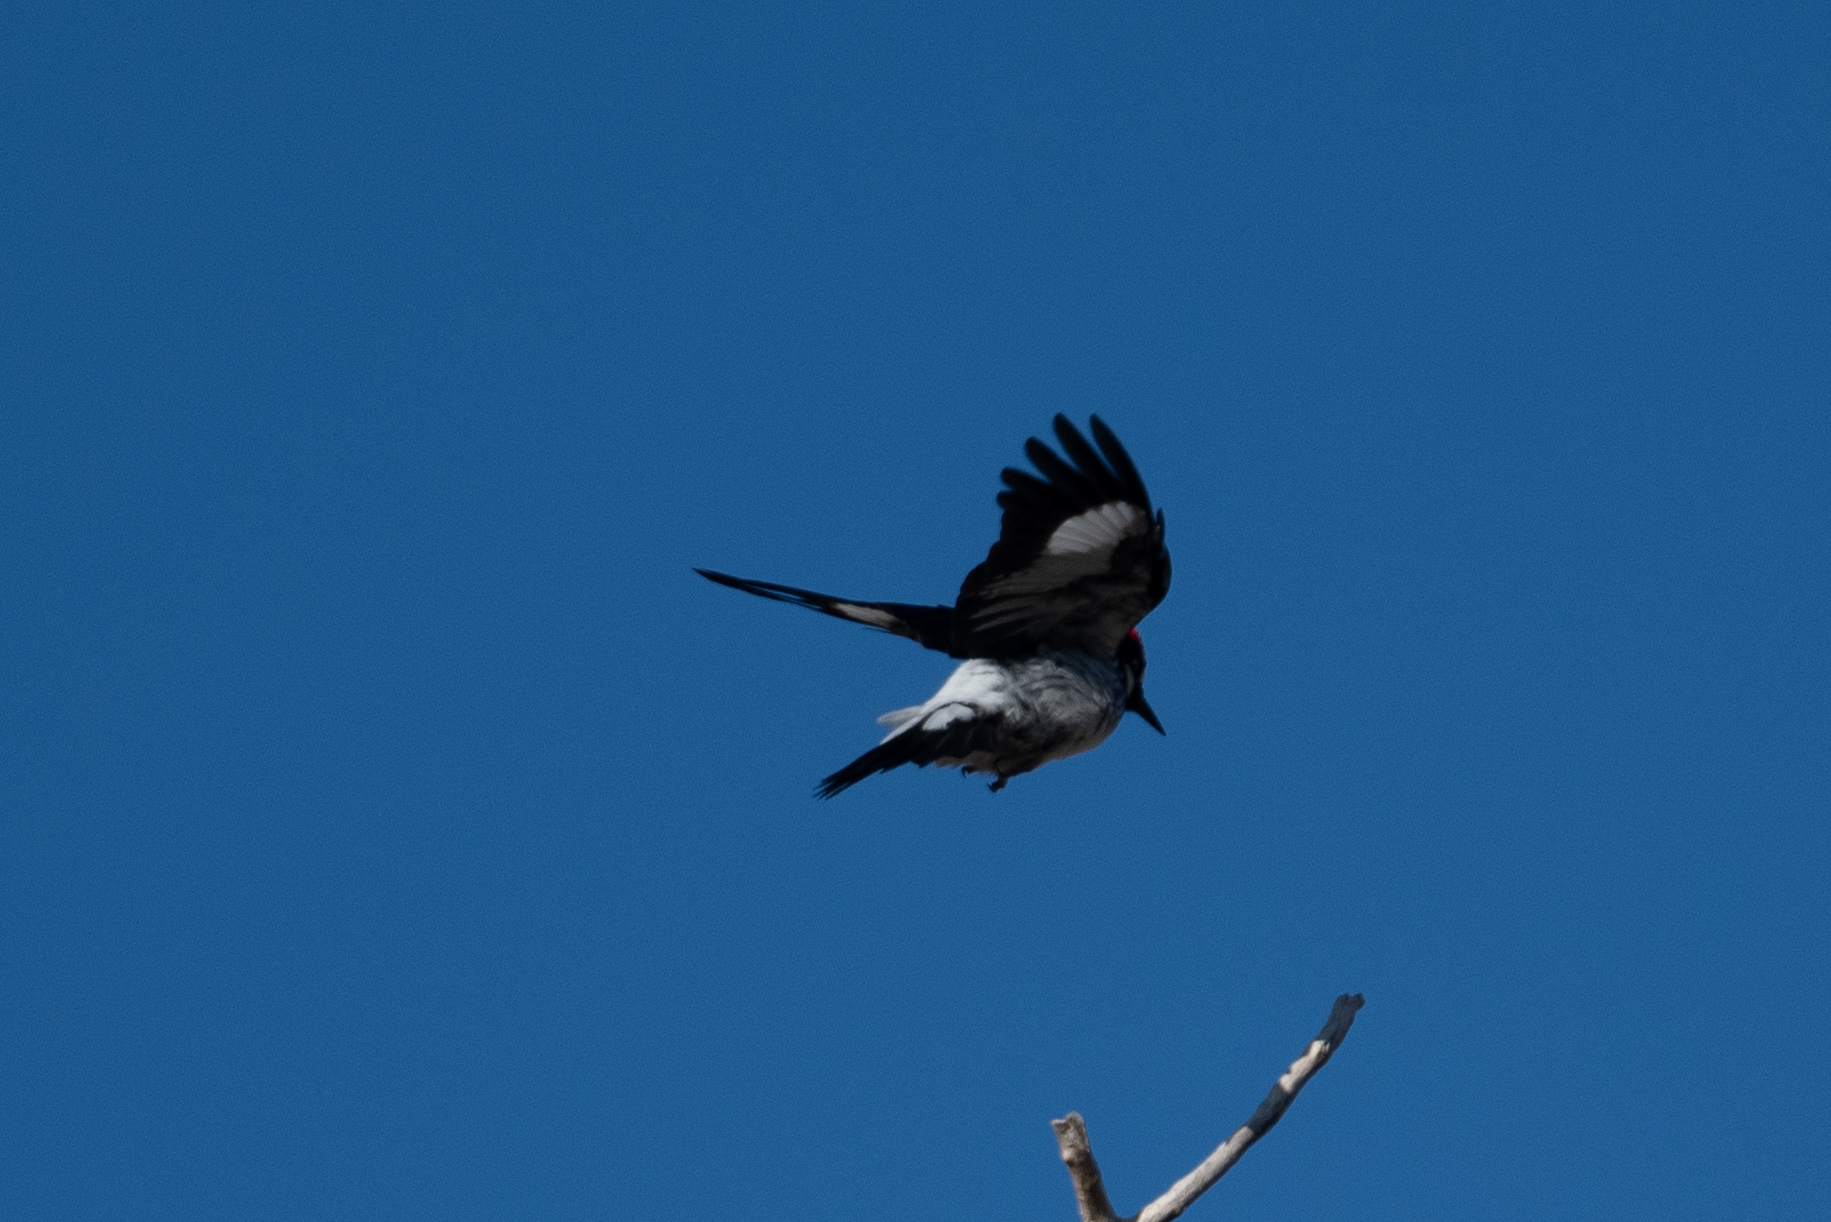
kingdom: Animalia
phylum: Chordata
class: Aves
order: Piciformes
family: Picidae
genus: Melanerpes
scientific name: Melanerpes formicivorus
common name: Acorn woodpecker
